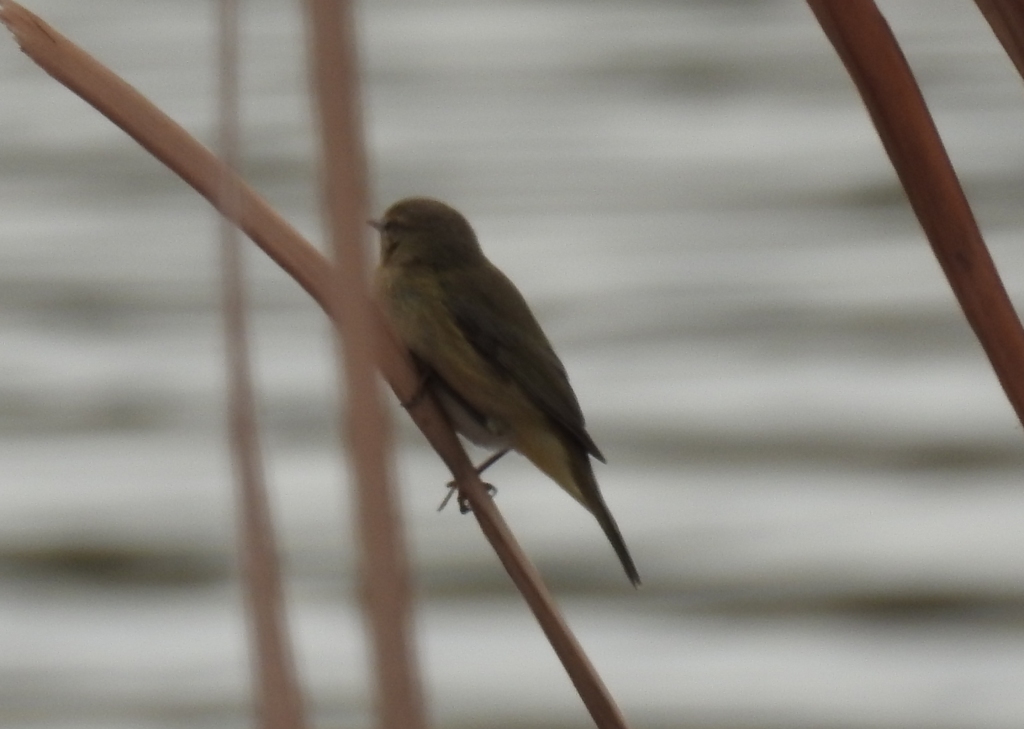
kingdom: Animalia
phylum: Chordata
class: Aves
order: Passeriformes
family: Phylloscopidae
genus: Phylloscopus
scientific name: Phylloscopus collybita
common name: Common chiffchaff
